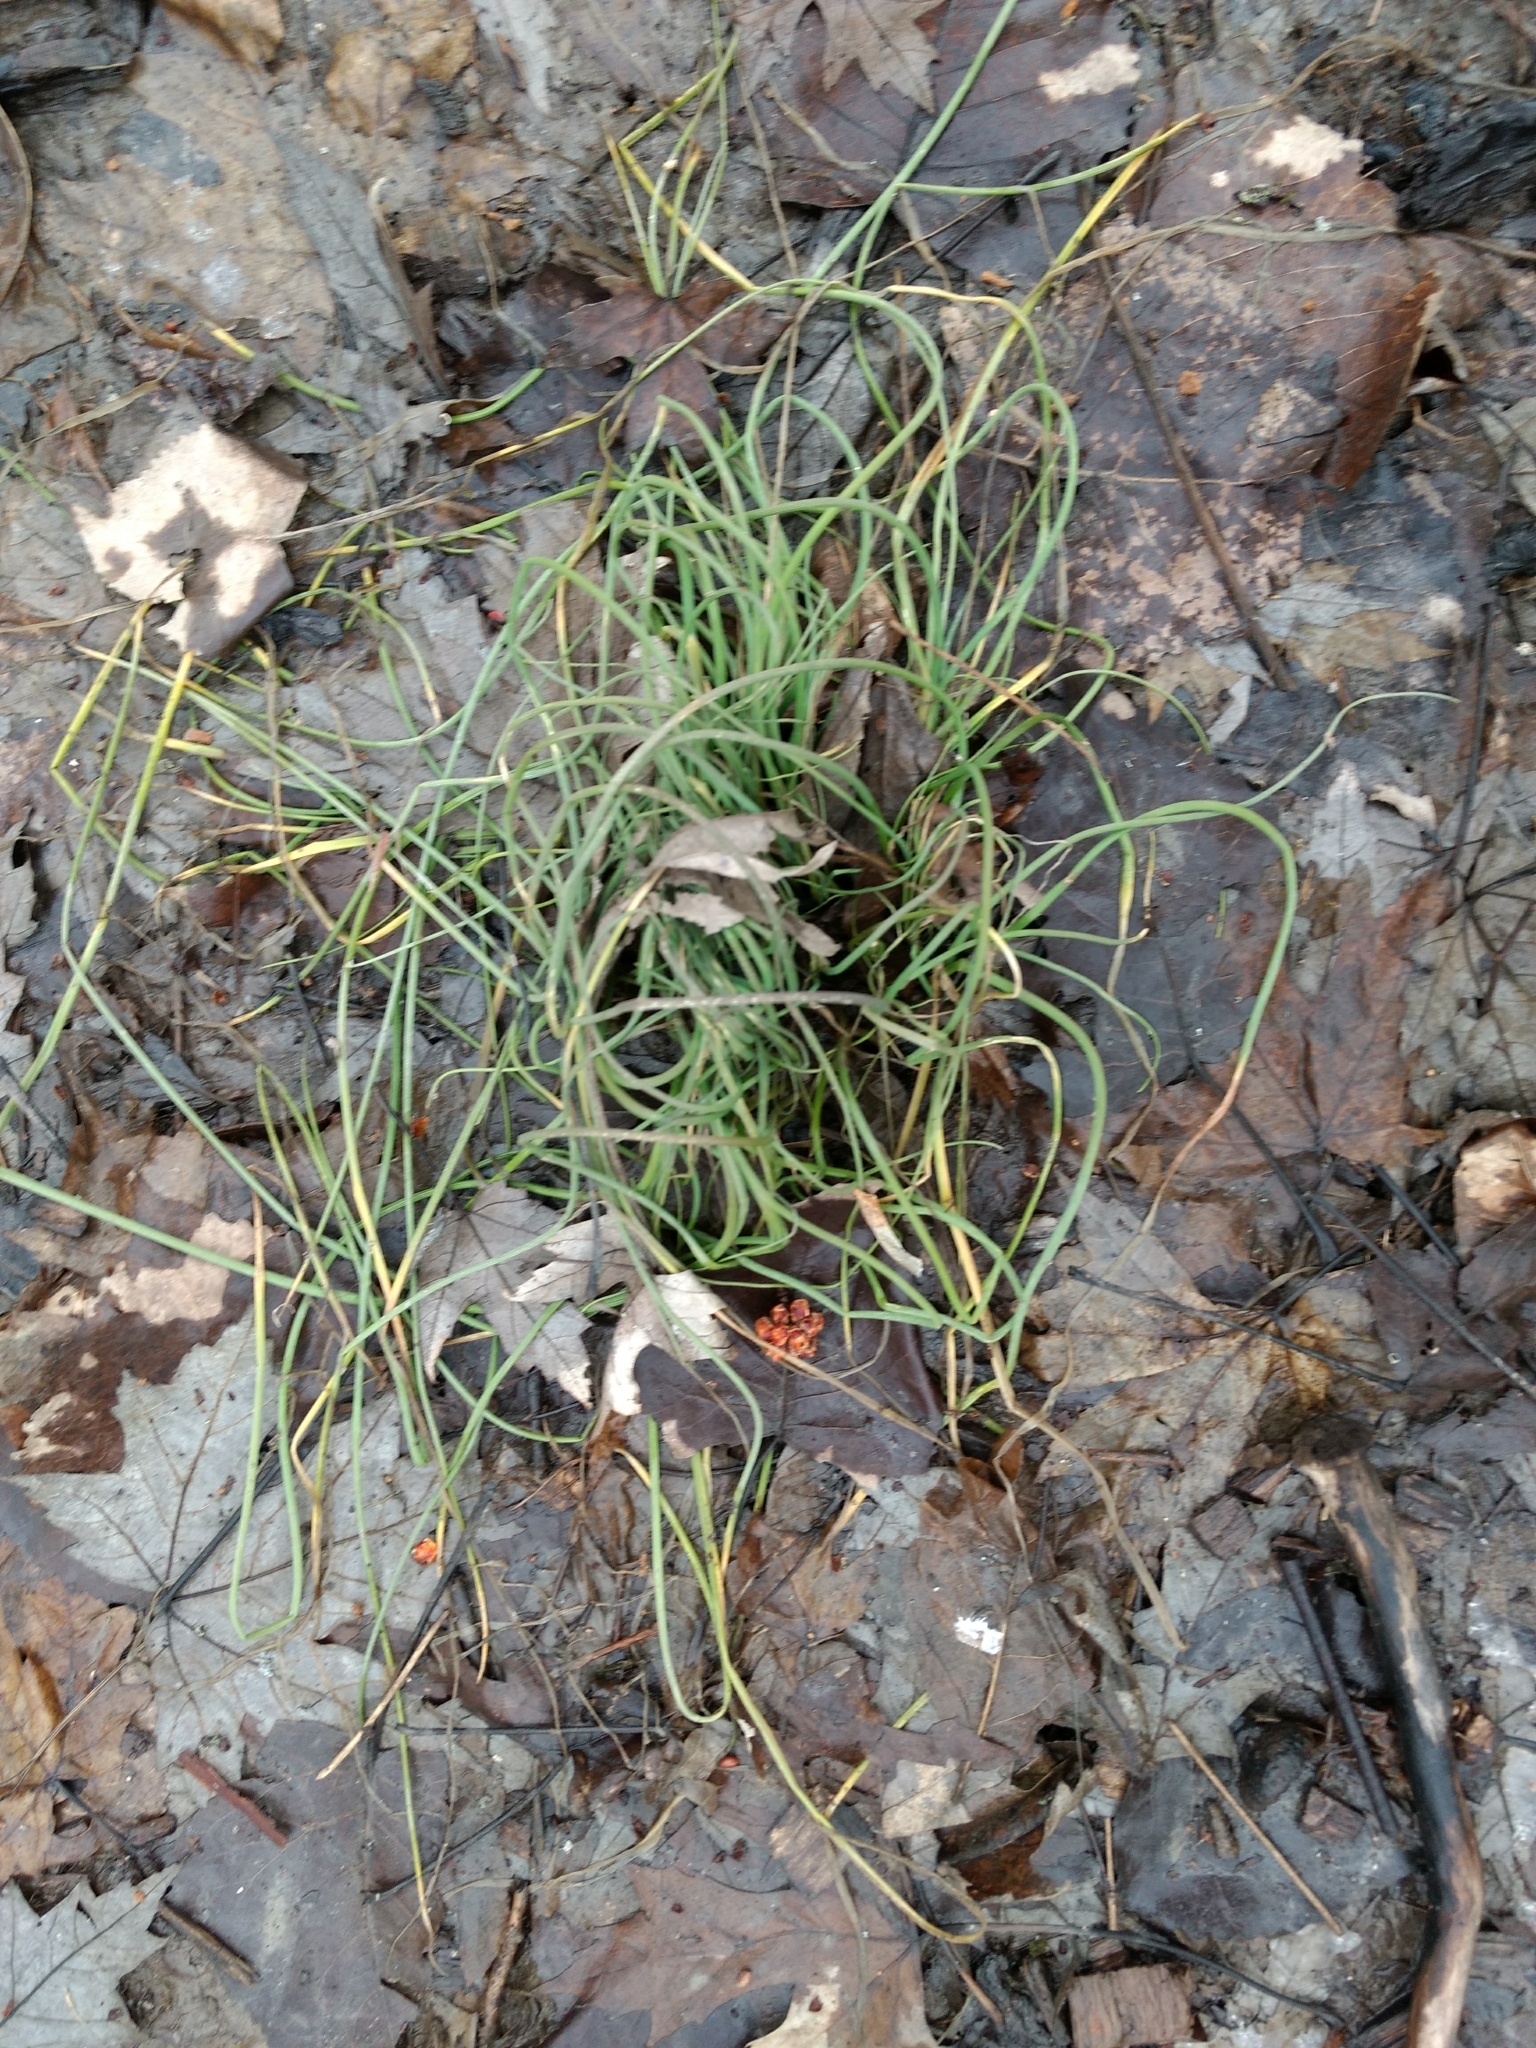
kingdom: Plantae
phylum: Tracheophyta
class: Liliopsida
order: Asparagales
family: Amaryllidaceae
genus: Allium
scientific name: Allium vineale
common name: Crow garlic
